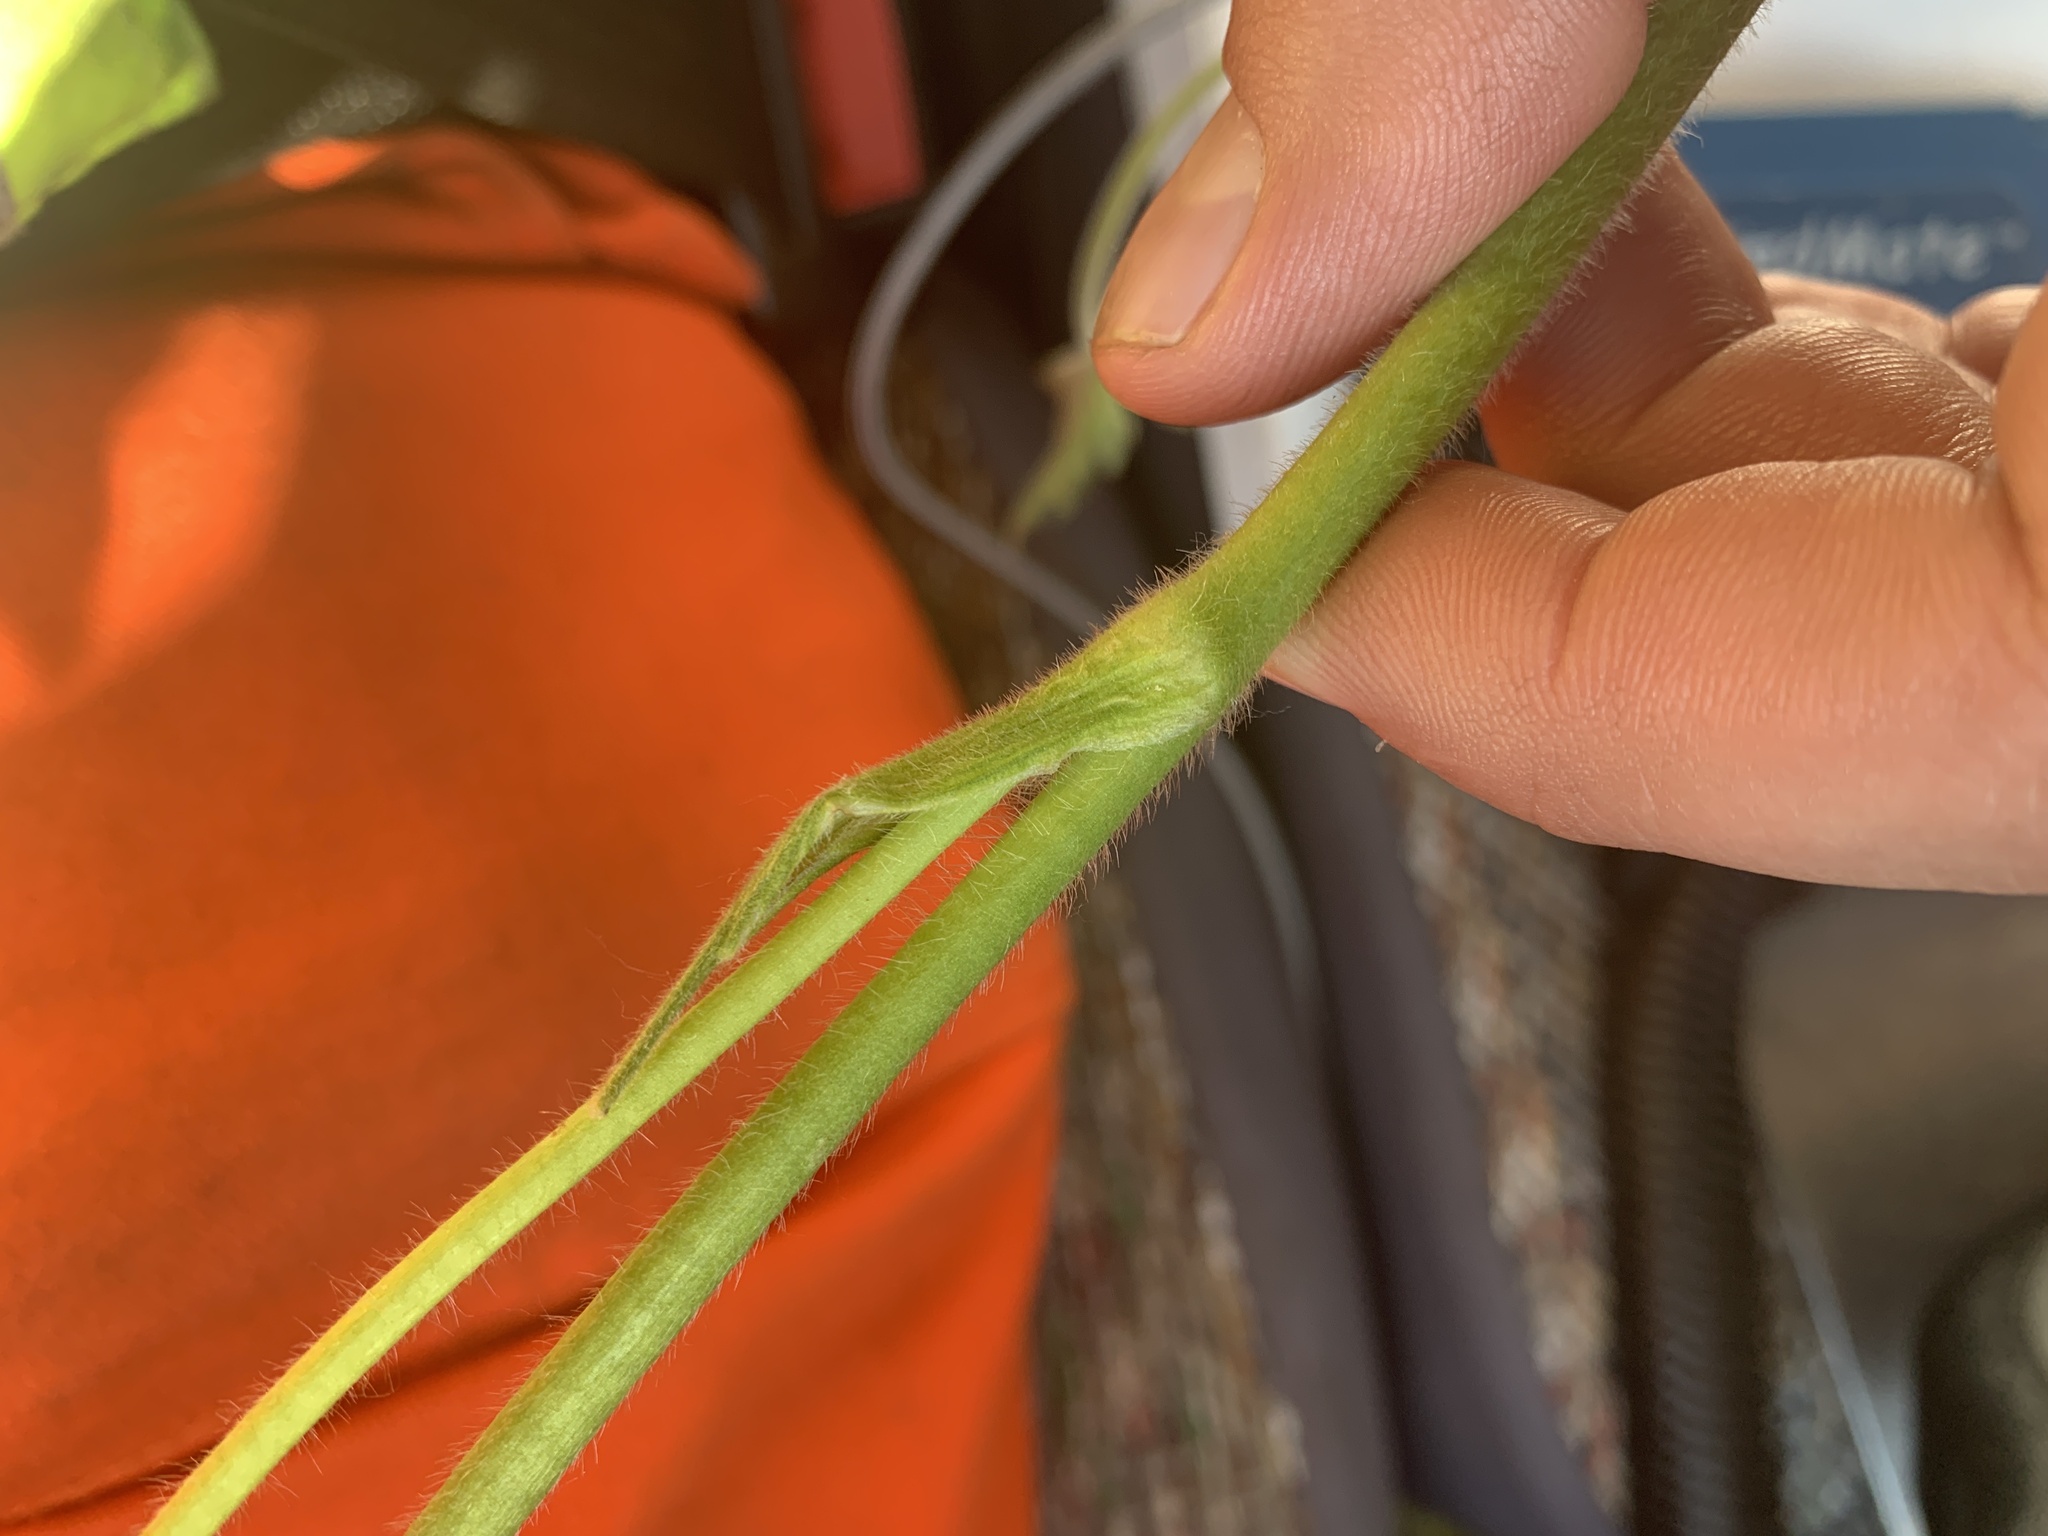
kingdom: Plantae
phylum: Tracheophyta
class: Magnoliopsida
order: Ranunculales
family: Ranunculaceae
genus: Ranunculus
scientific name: Ranunculus acris
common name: Meadow buttercup
